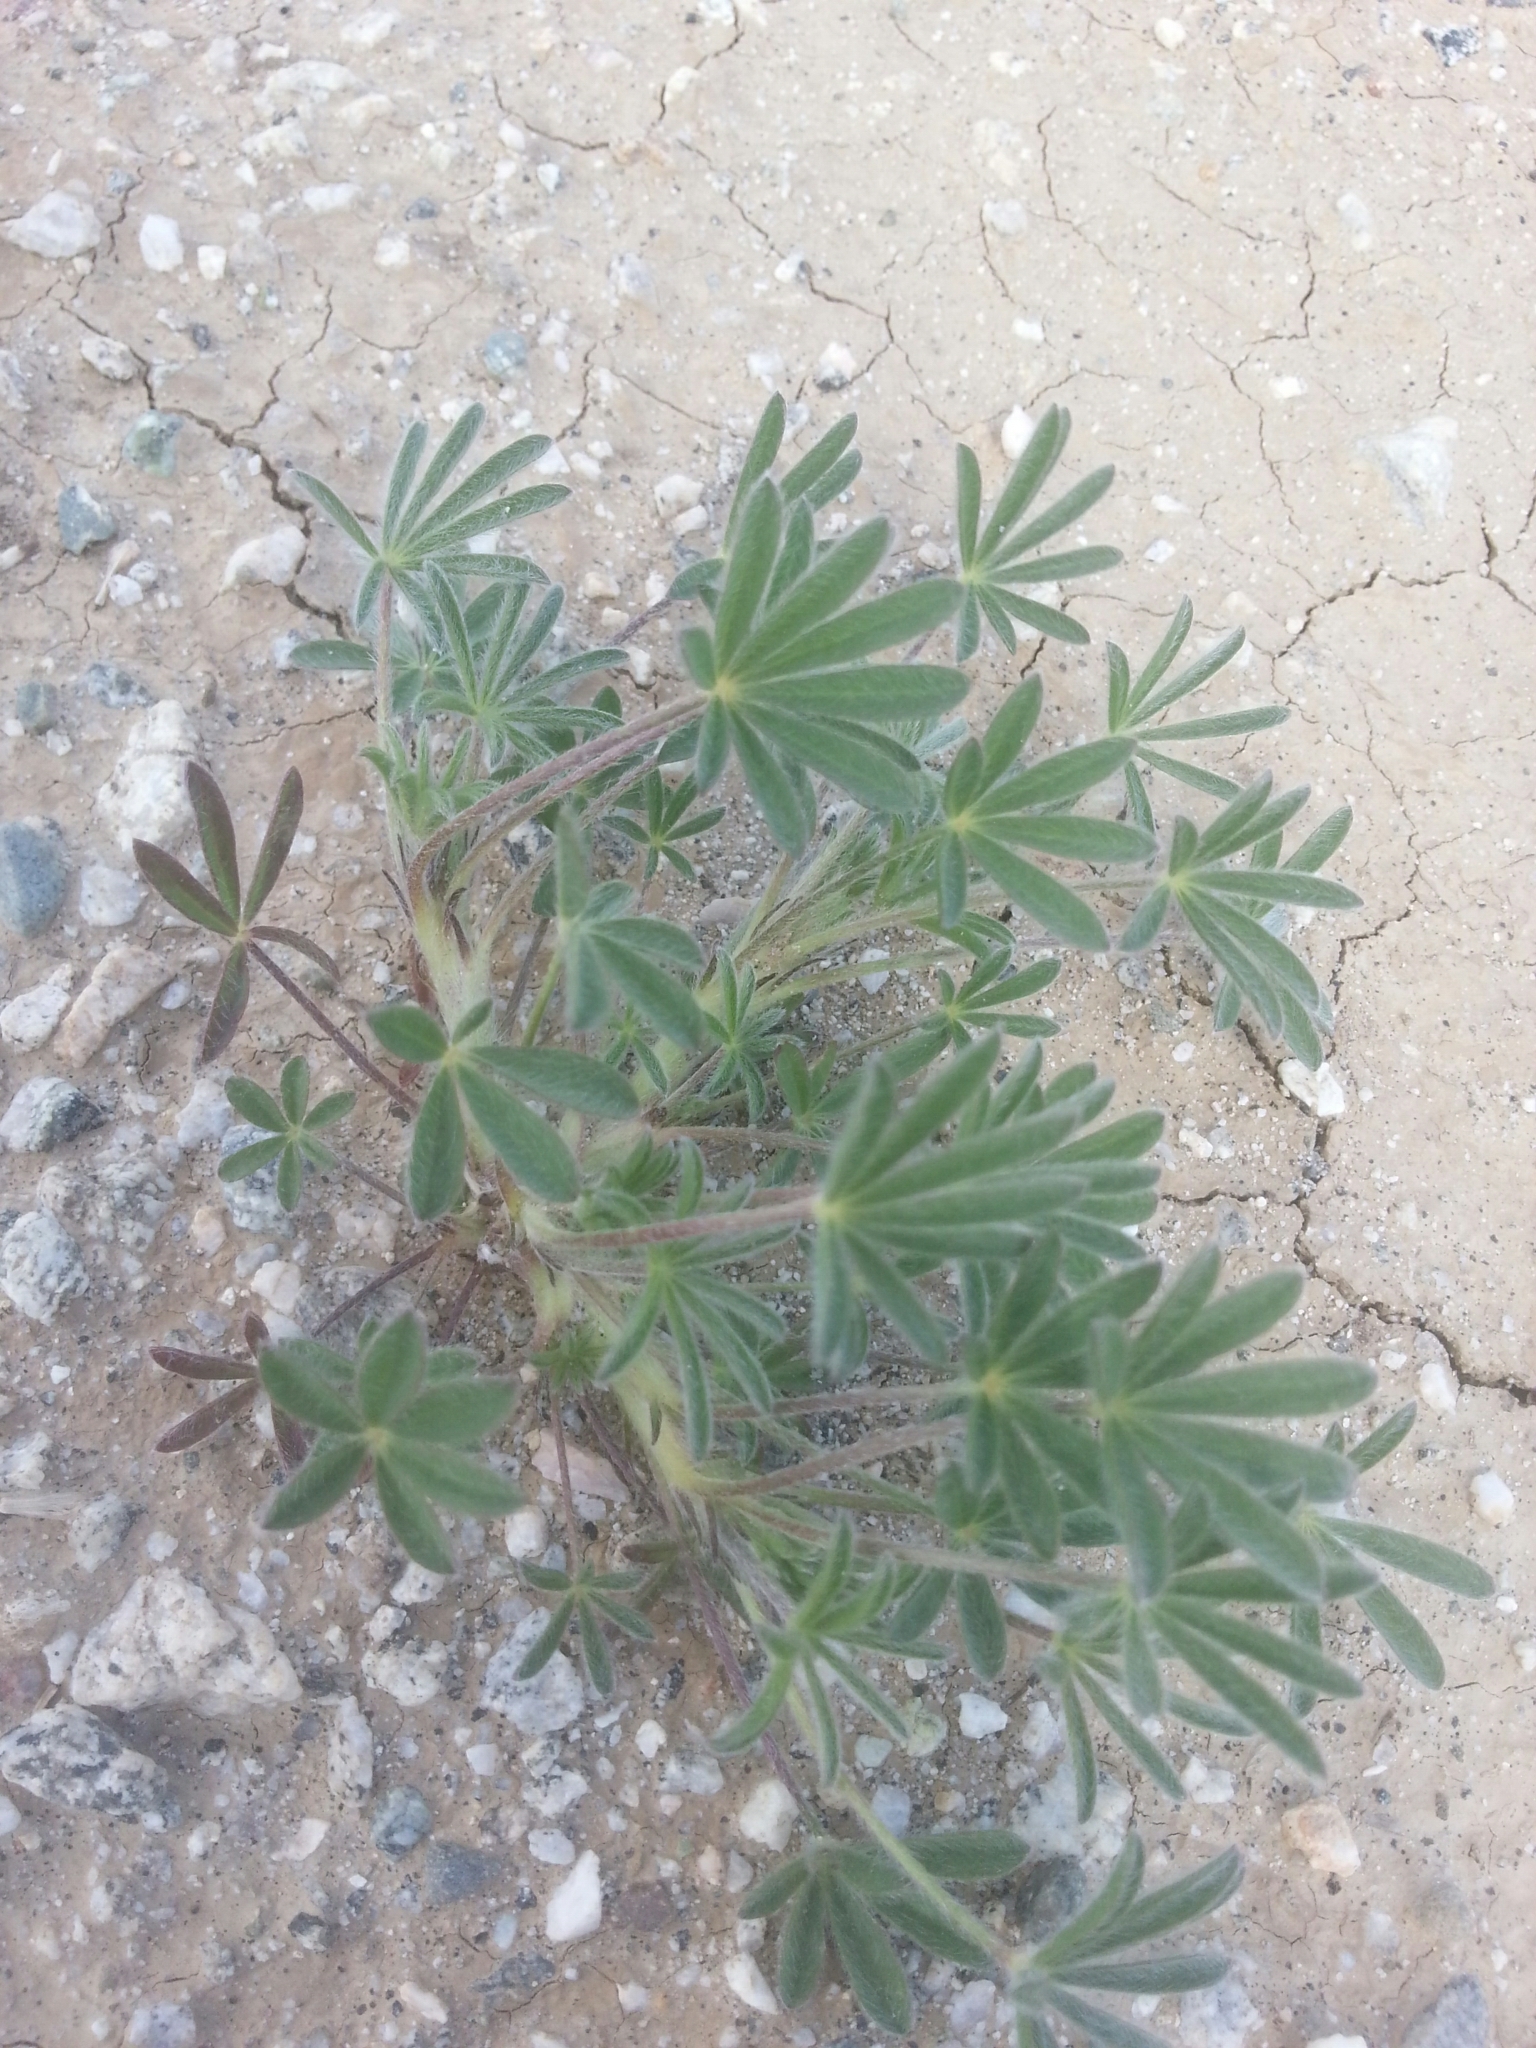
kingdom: Plantae
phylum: Tracheophyta
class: Magnoliopsida
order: Fabales
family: Fabaceae
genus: Lupinus
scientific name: Lupinus arizonicus
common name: Arizona lupine
